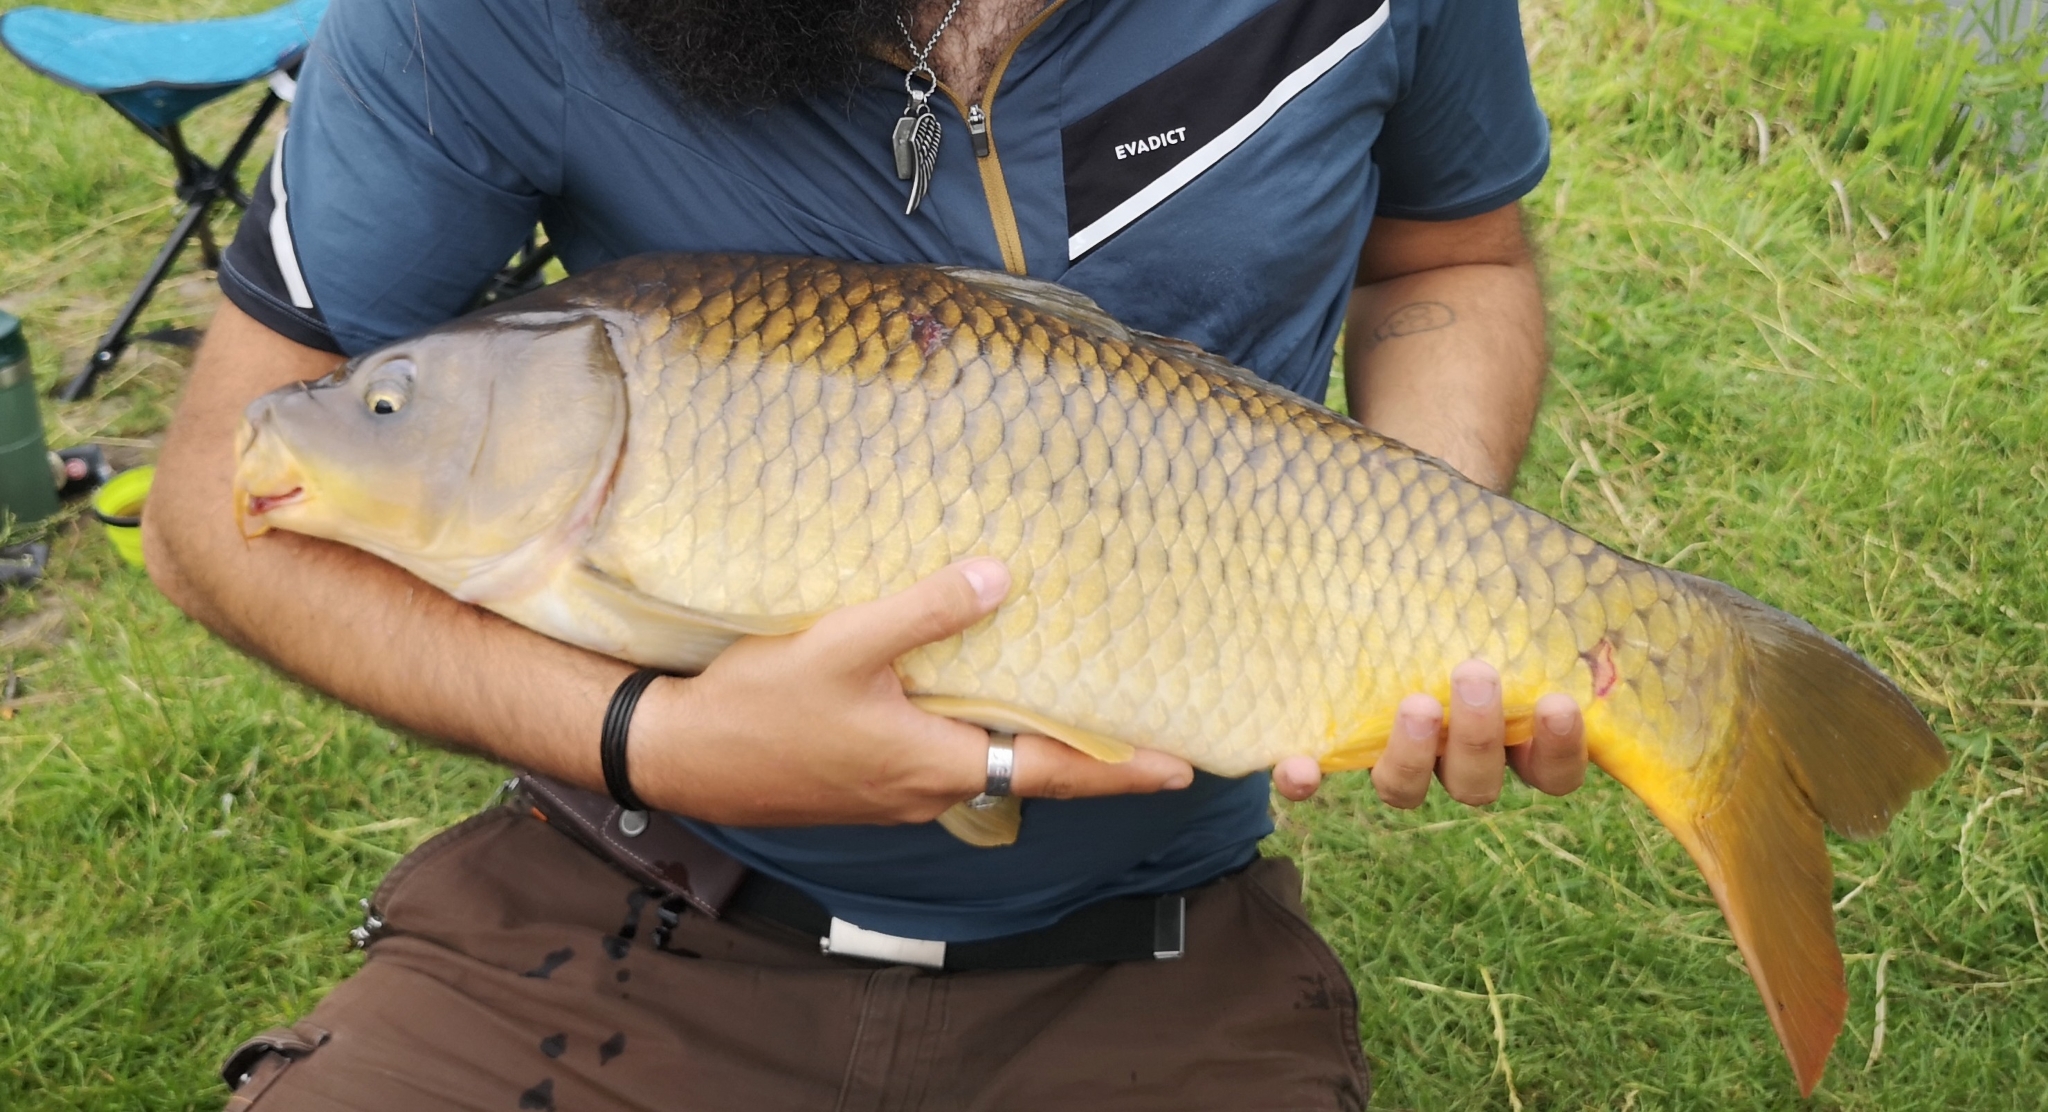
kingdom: Animalia
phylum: Chordata
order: Cypriniformes
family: Cyprinidae
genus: Cyprinus
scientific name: Cyprinus carpio
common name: Common carp
